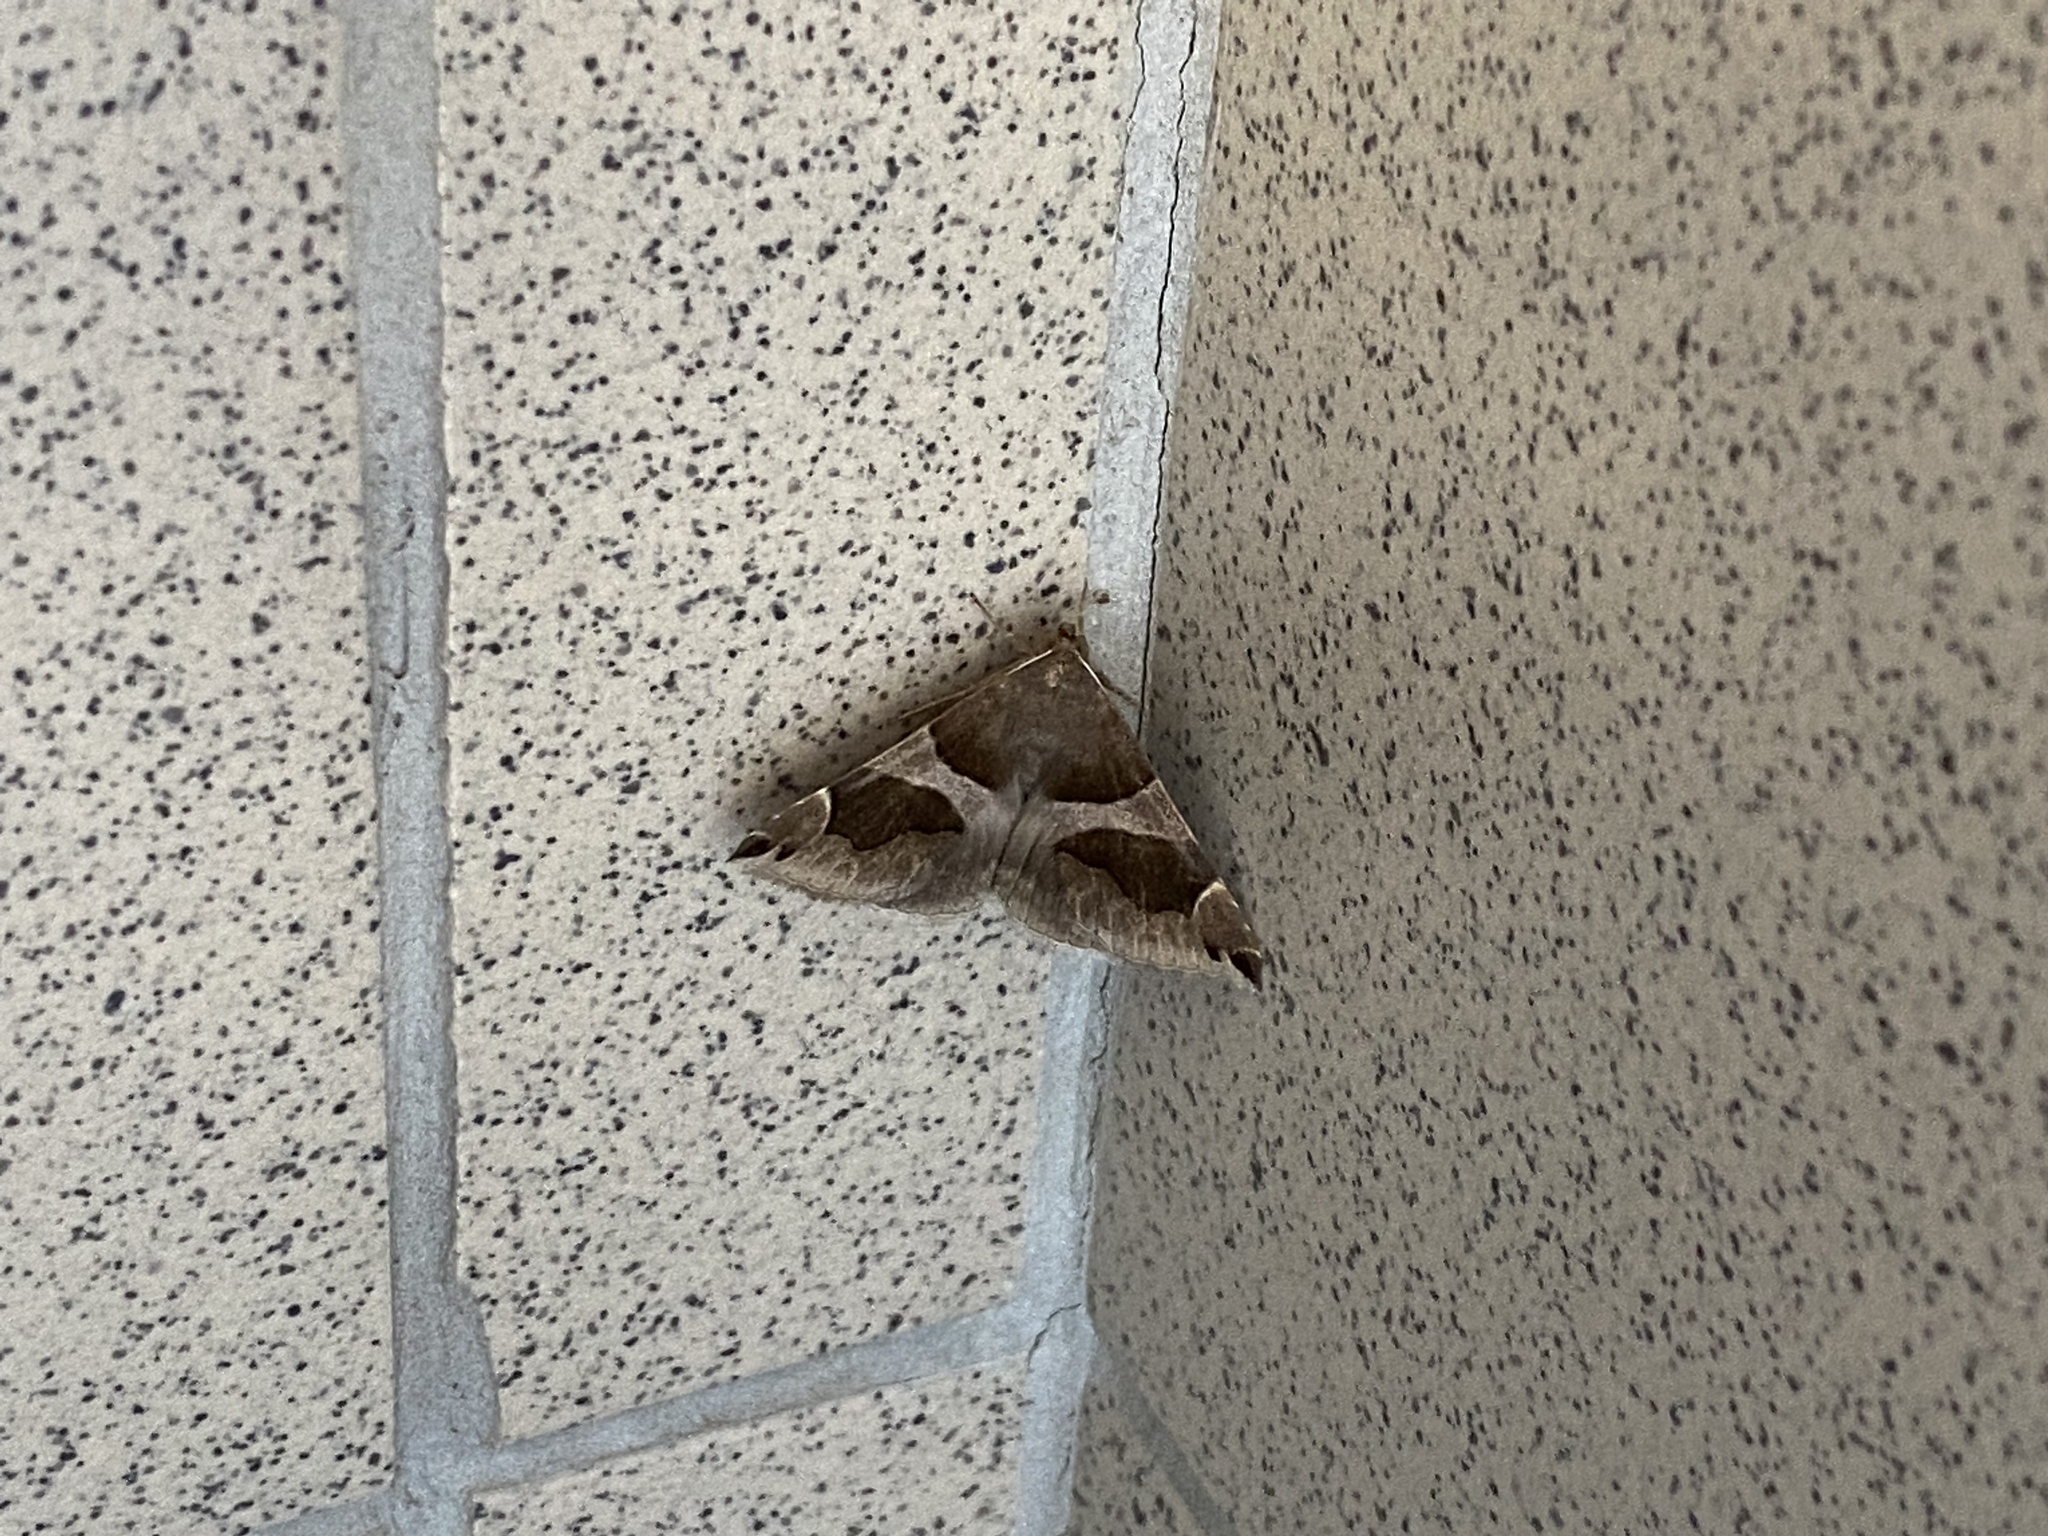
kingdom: Animalia
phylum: Arthropoda
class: Insecta
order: Lepidoptera
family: Erebidae
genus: Dysgonia
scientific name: Dysgonia algira
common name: Passenger
